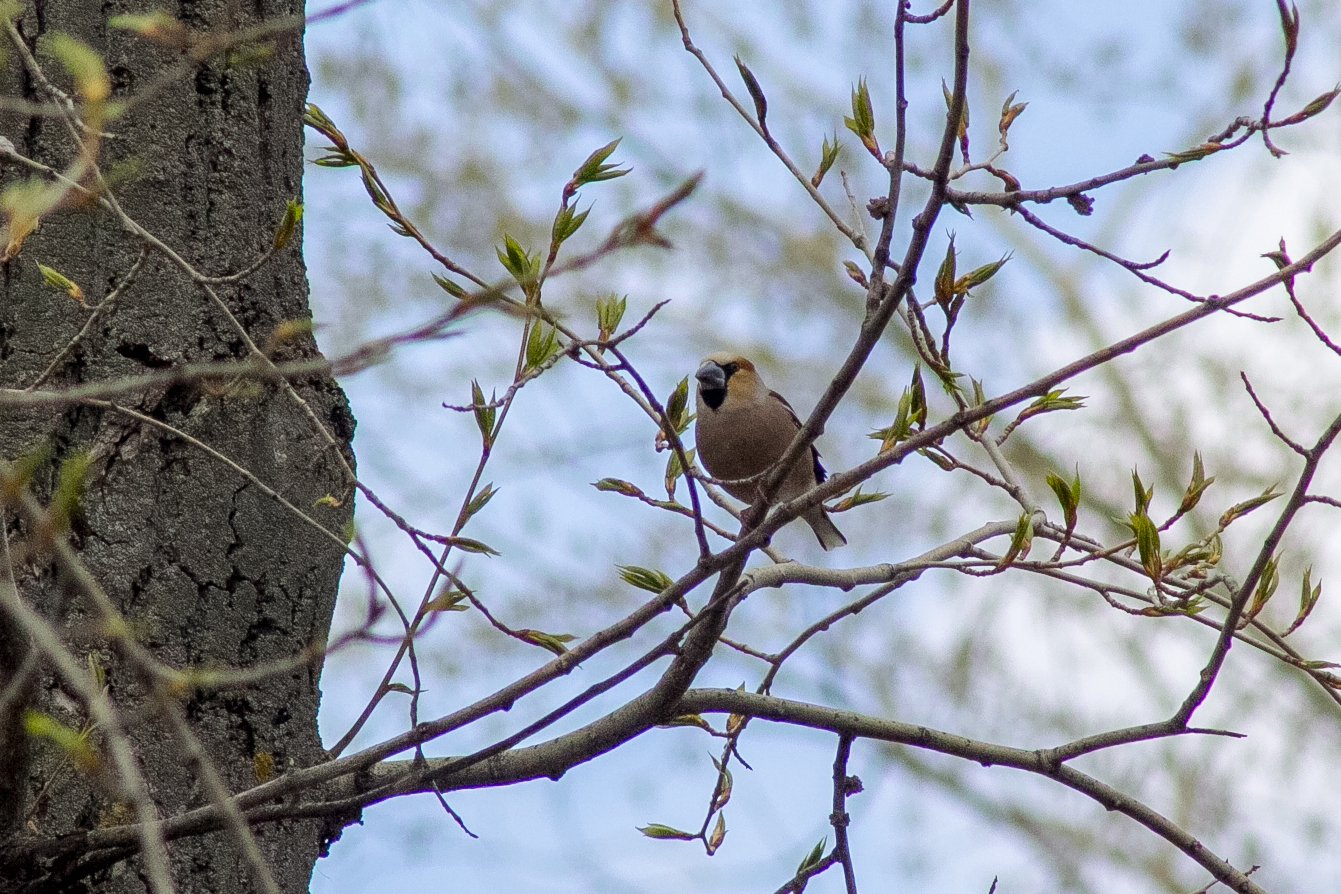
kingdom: Animalia
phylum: Chordata
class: Aves
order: Passeriformes
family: Fringillidae
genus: Coccothraustes
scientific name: Coccothraustes coccothraustes
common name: Hawfinch
